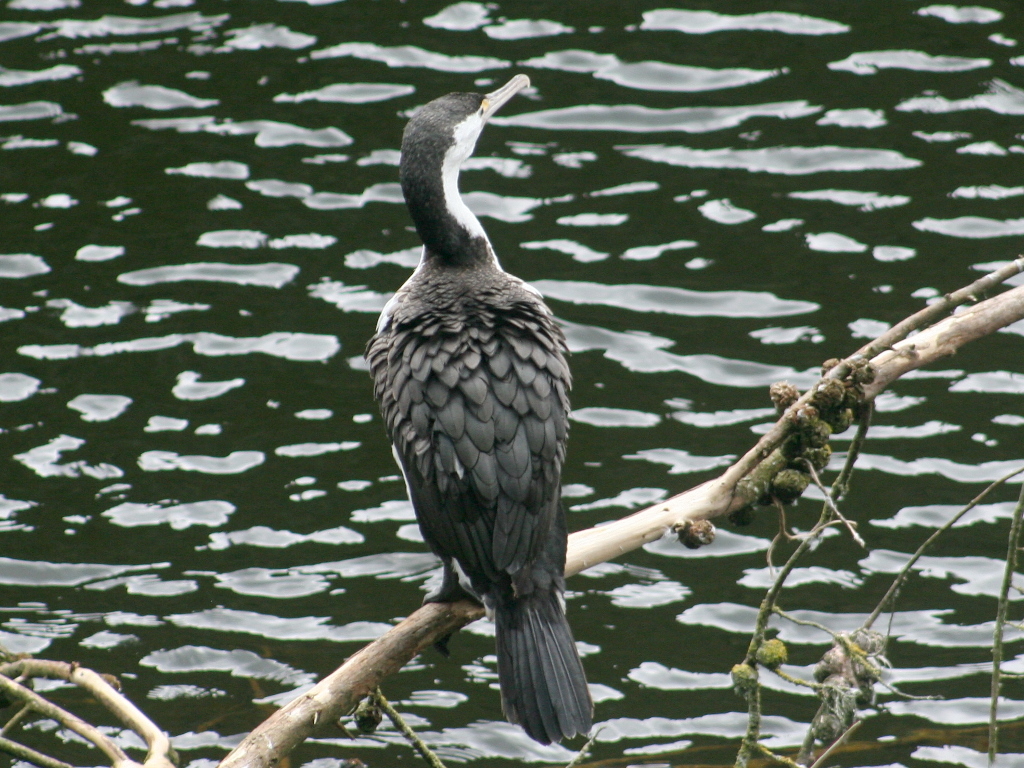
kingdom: Animalia
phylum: Chordata
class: Aves
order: Suliformes
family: Phalacrocoracidae
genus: Phalacrocorax
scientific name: Phalacrocorax varius
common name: Pied cormorant
